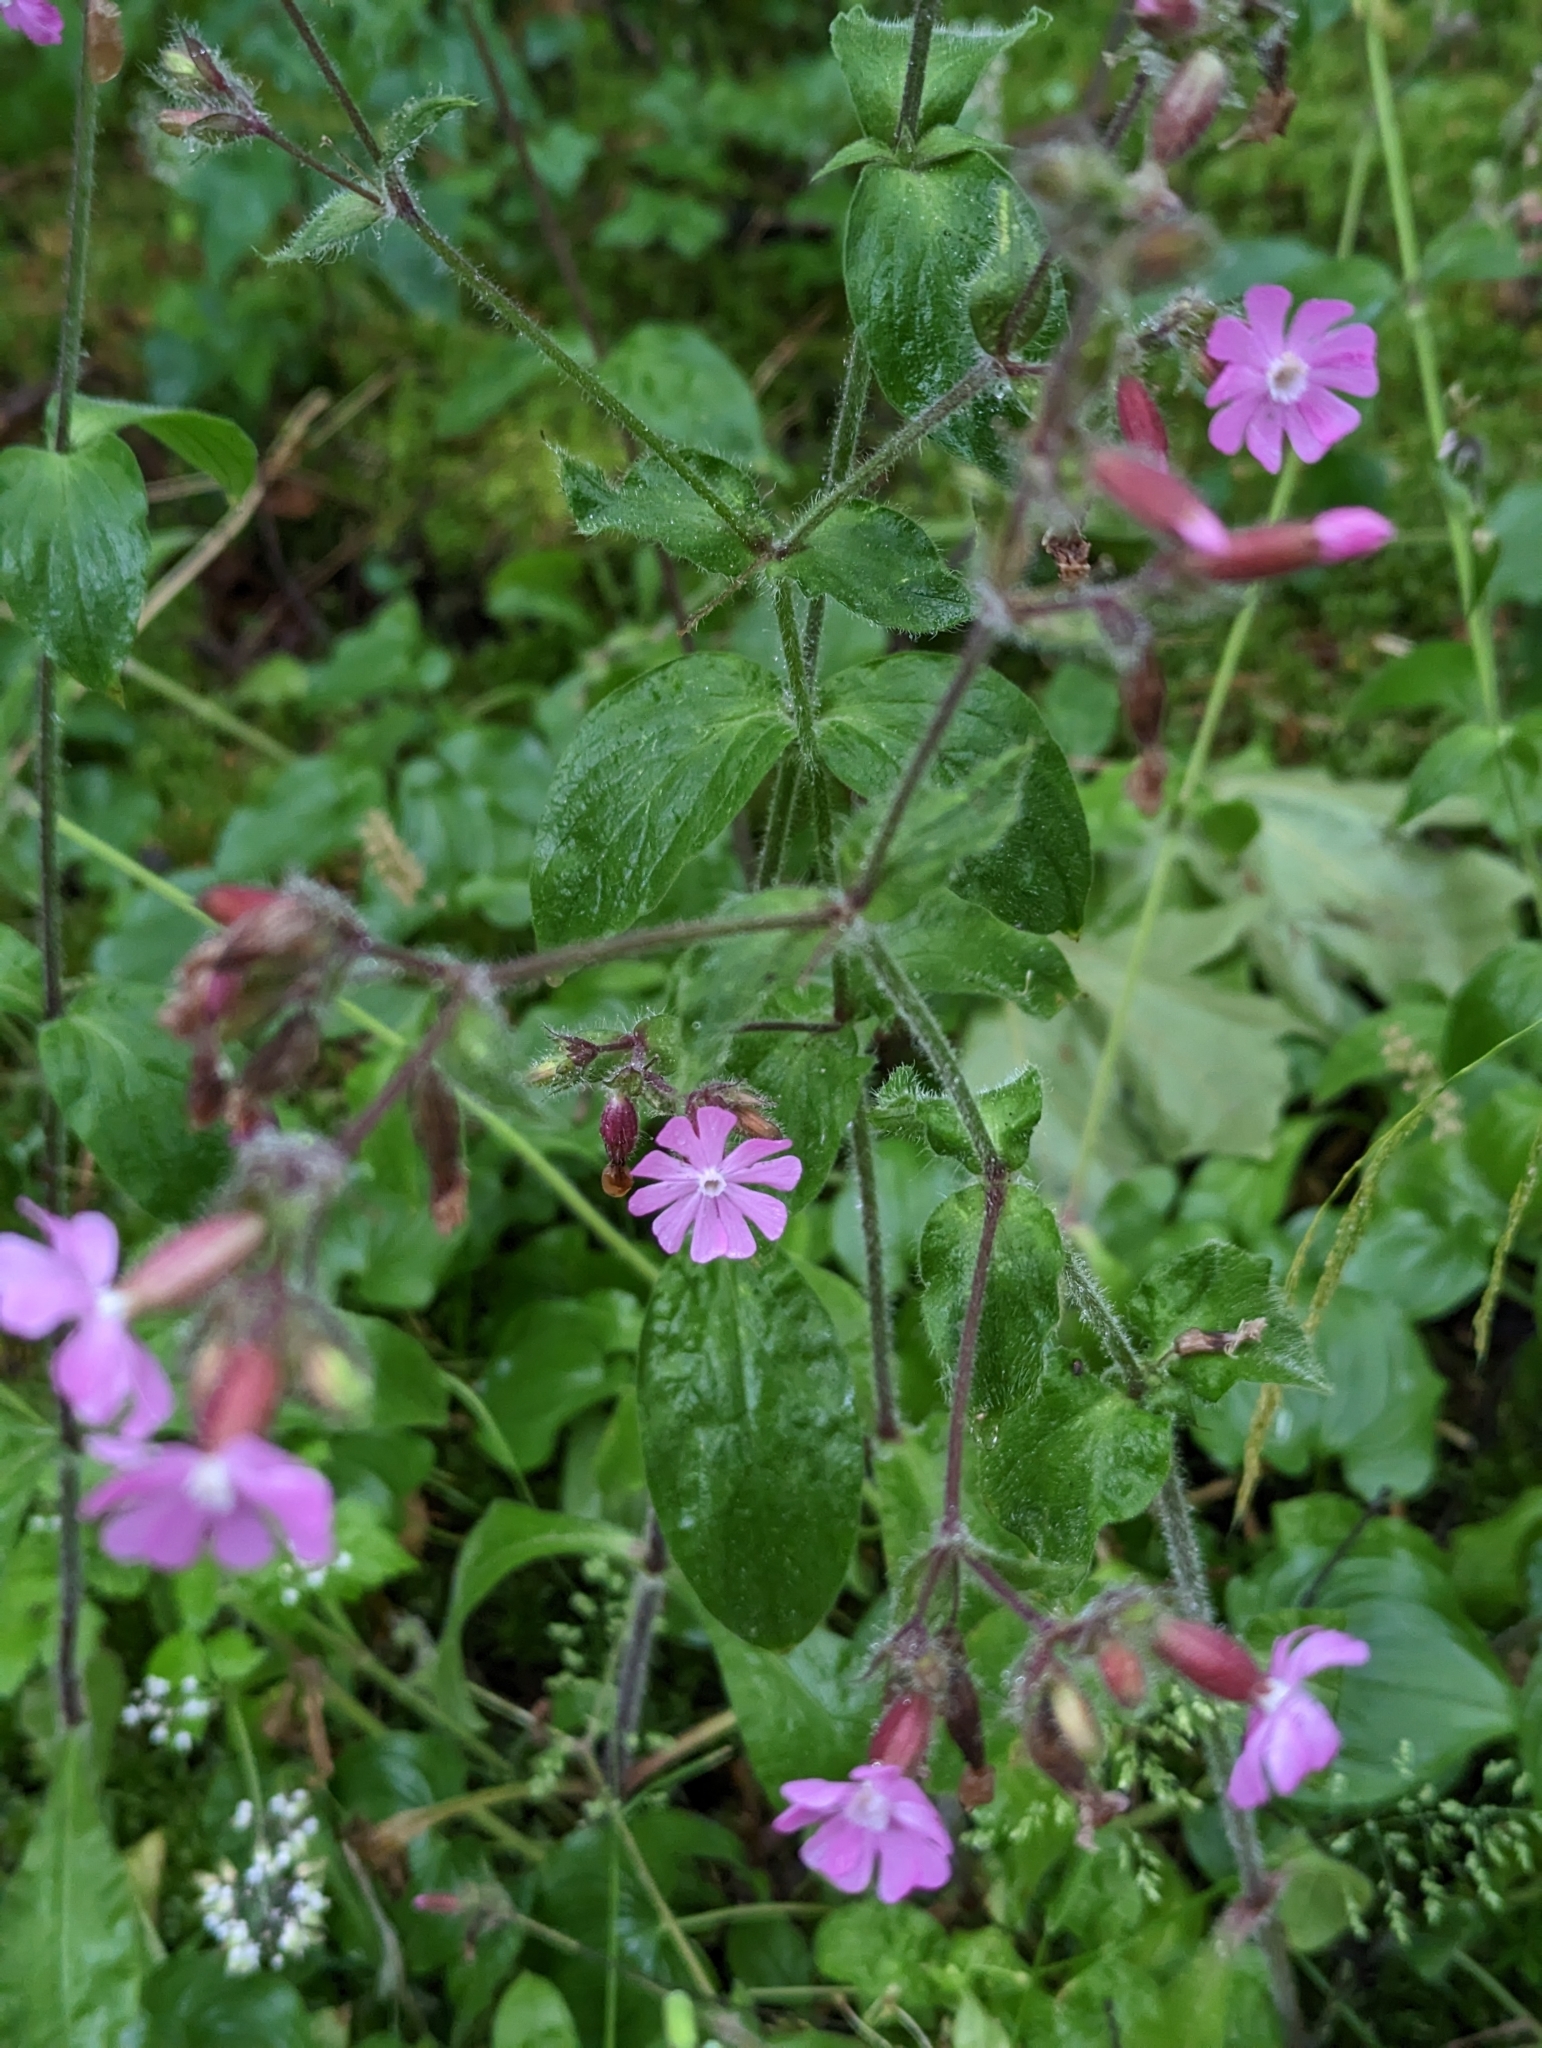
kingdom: Plantae
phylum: Tracheophyta
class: Magnoliopsida
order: Caryophyllales
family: Caryophyllaceae
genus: Silene
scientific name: Silene dioica
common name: Red campion
